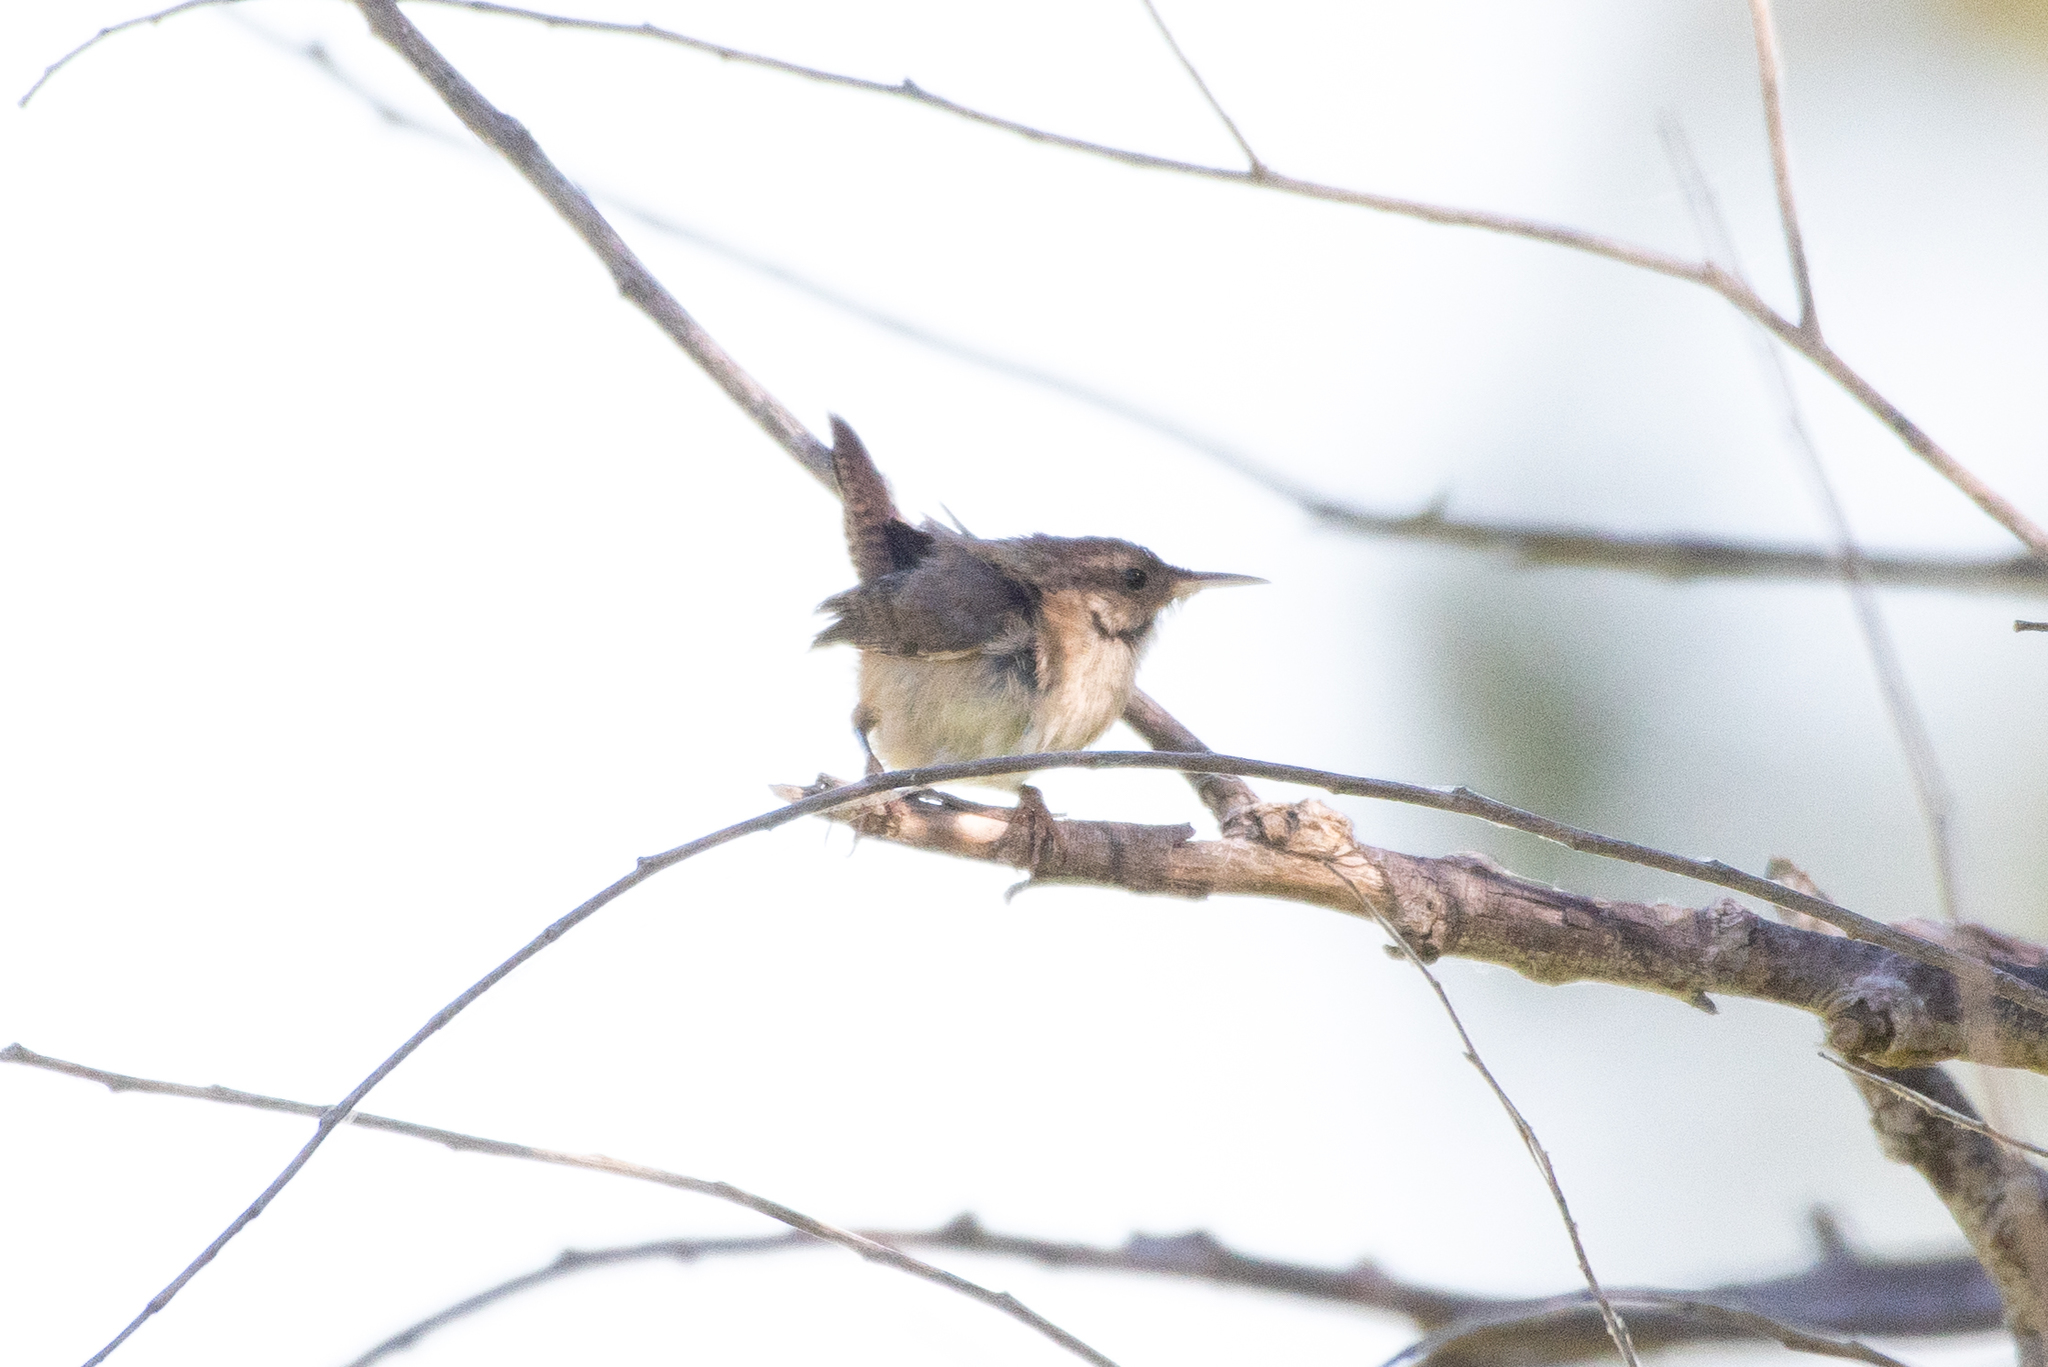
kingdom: Animalia
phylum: Chordata
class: Aves
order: Passeriformes
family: Troglodytidae
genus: Cistothorus
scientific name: Cistothorus palustris
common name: Marsh wren
